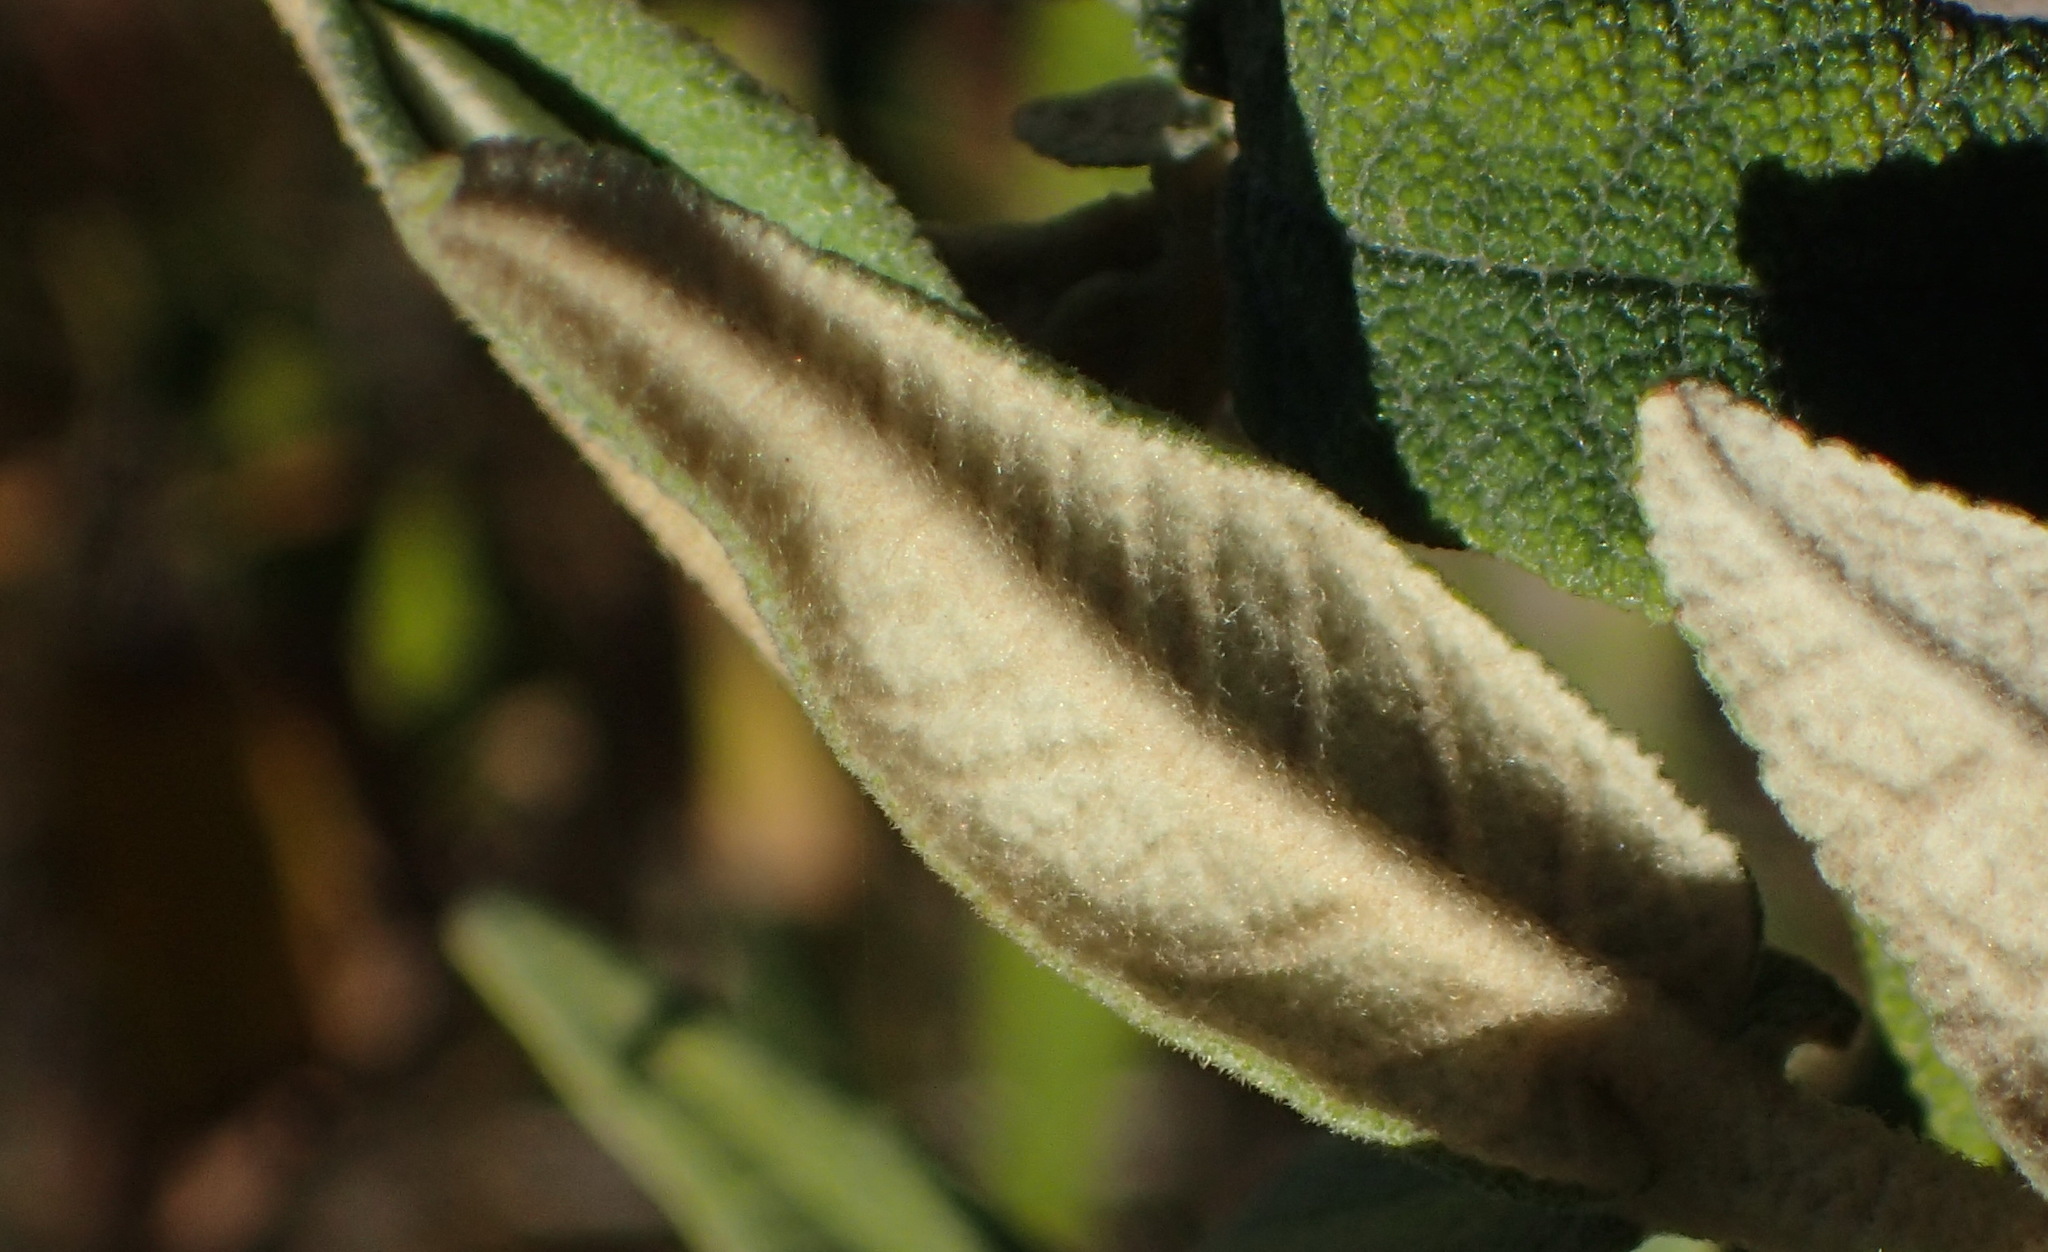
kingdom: Plantae
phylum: Tracheophyta
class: Magnoliopsida
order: Lamiales
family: Scrophulariaceae
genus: Buddleja
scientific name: Buddleja salviifolia
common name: Sagewood
